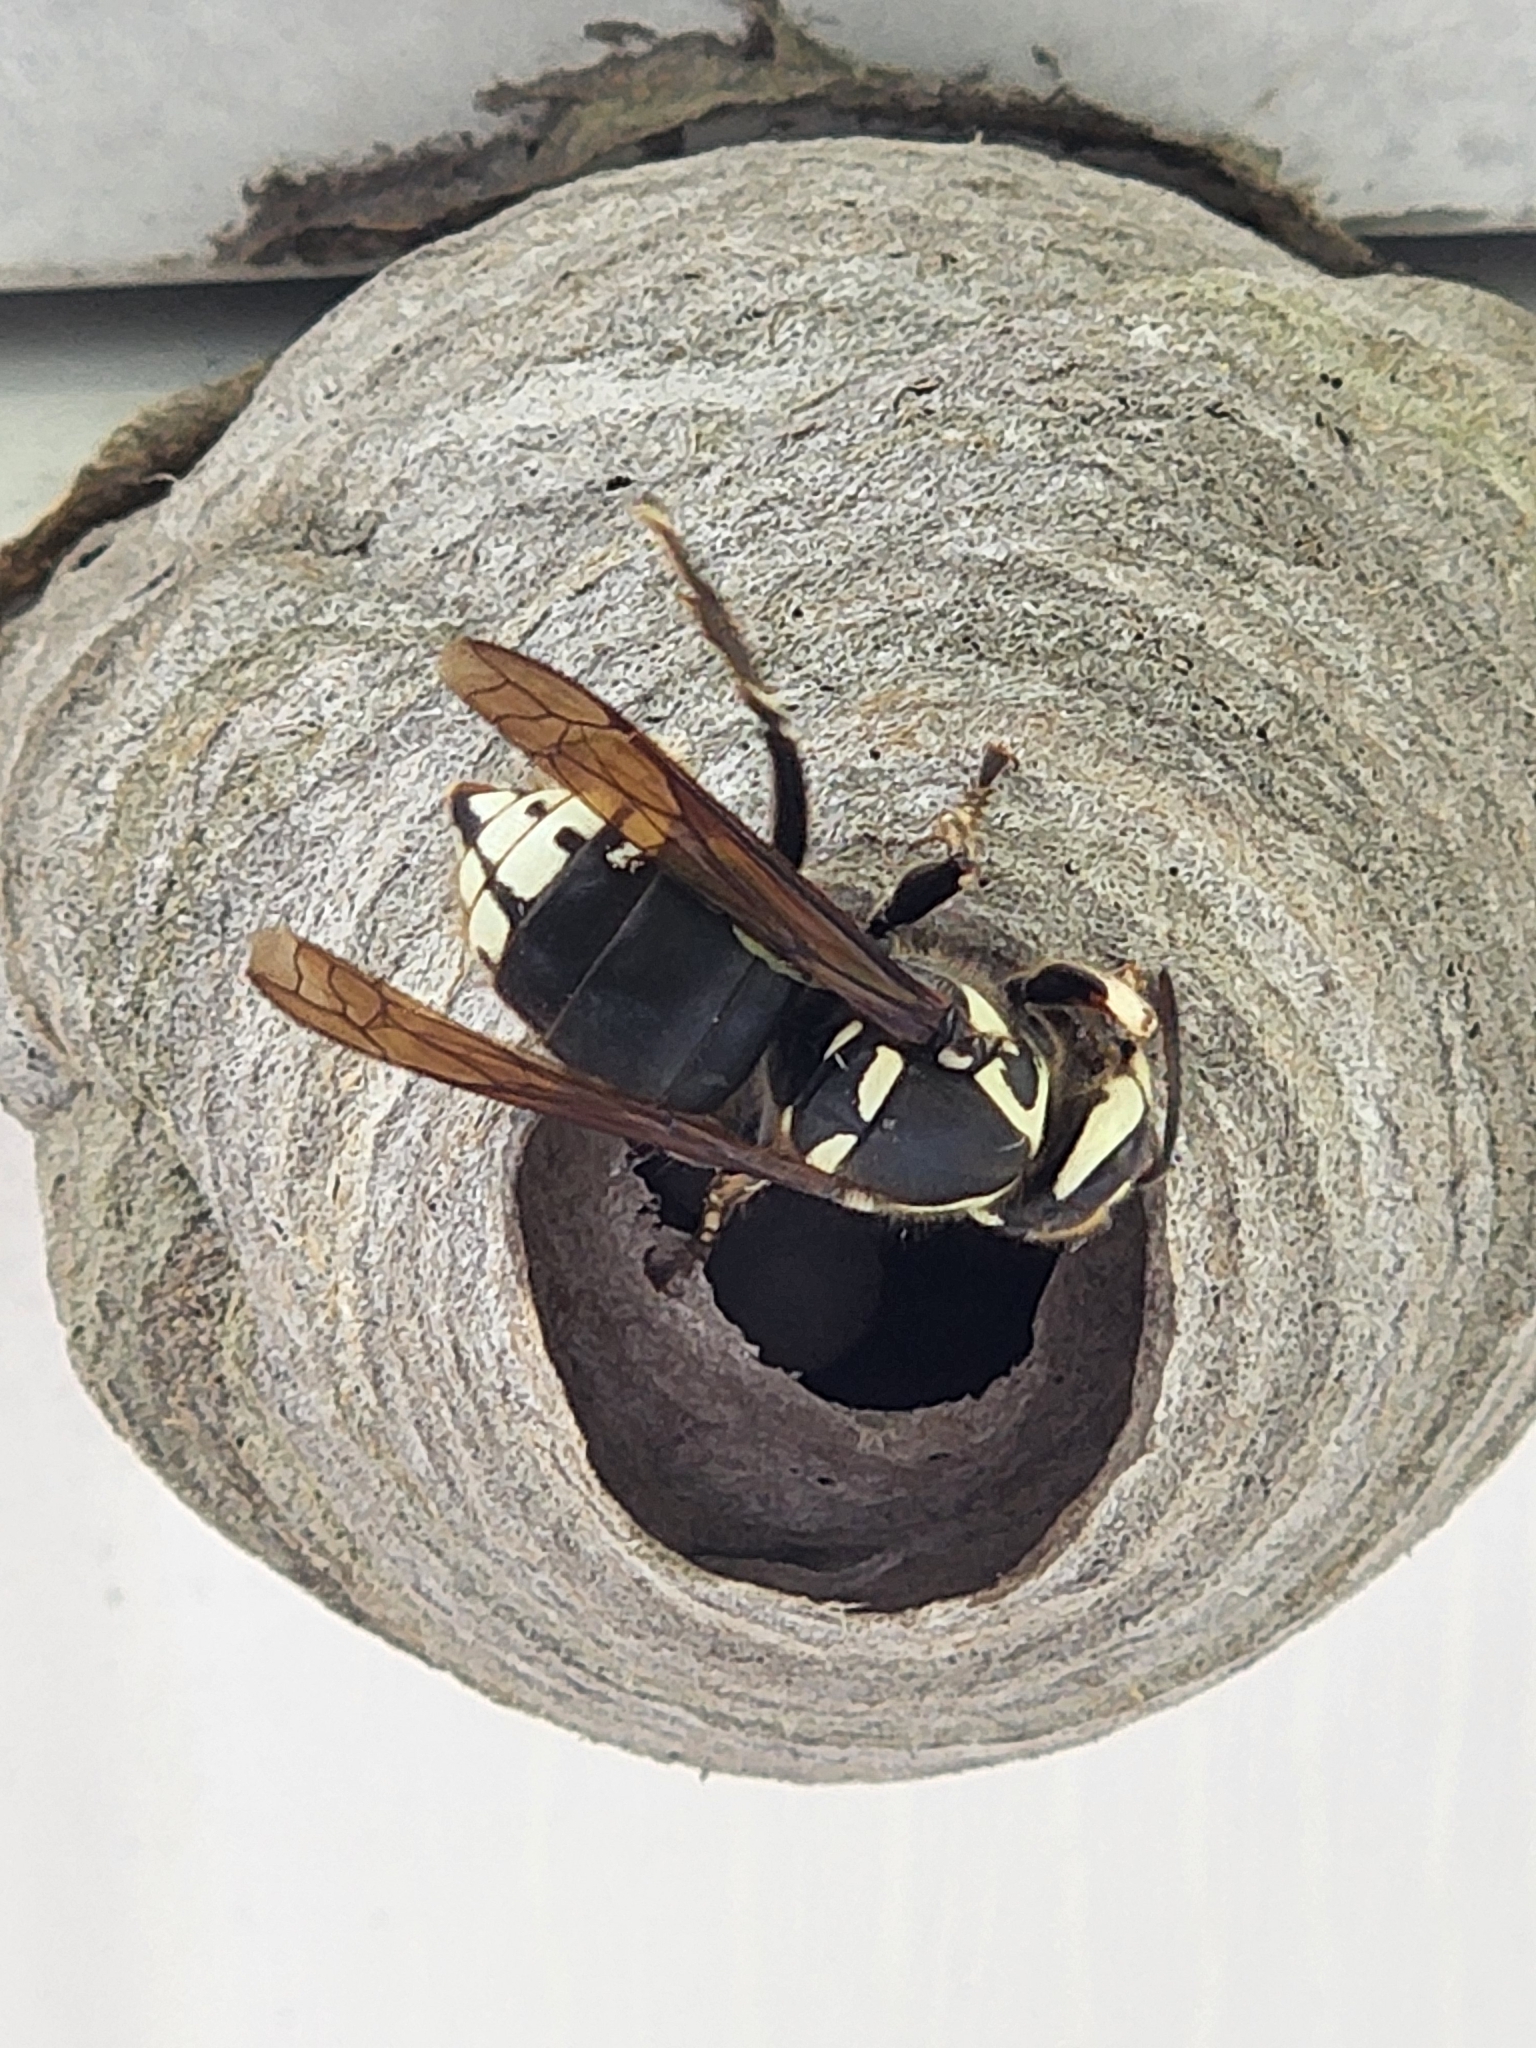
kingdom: Animalia
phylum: Arthropoda
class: Insecta
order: Hymenoptera
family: Vespidae
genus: Dolichovespula
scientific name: Dolichovespula maculata
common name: Bald-faced hornet
